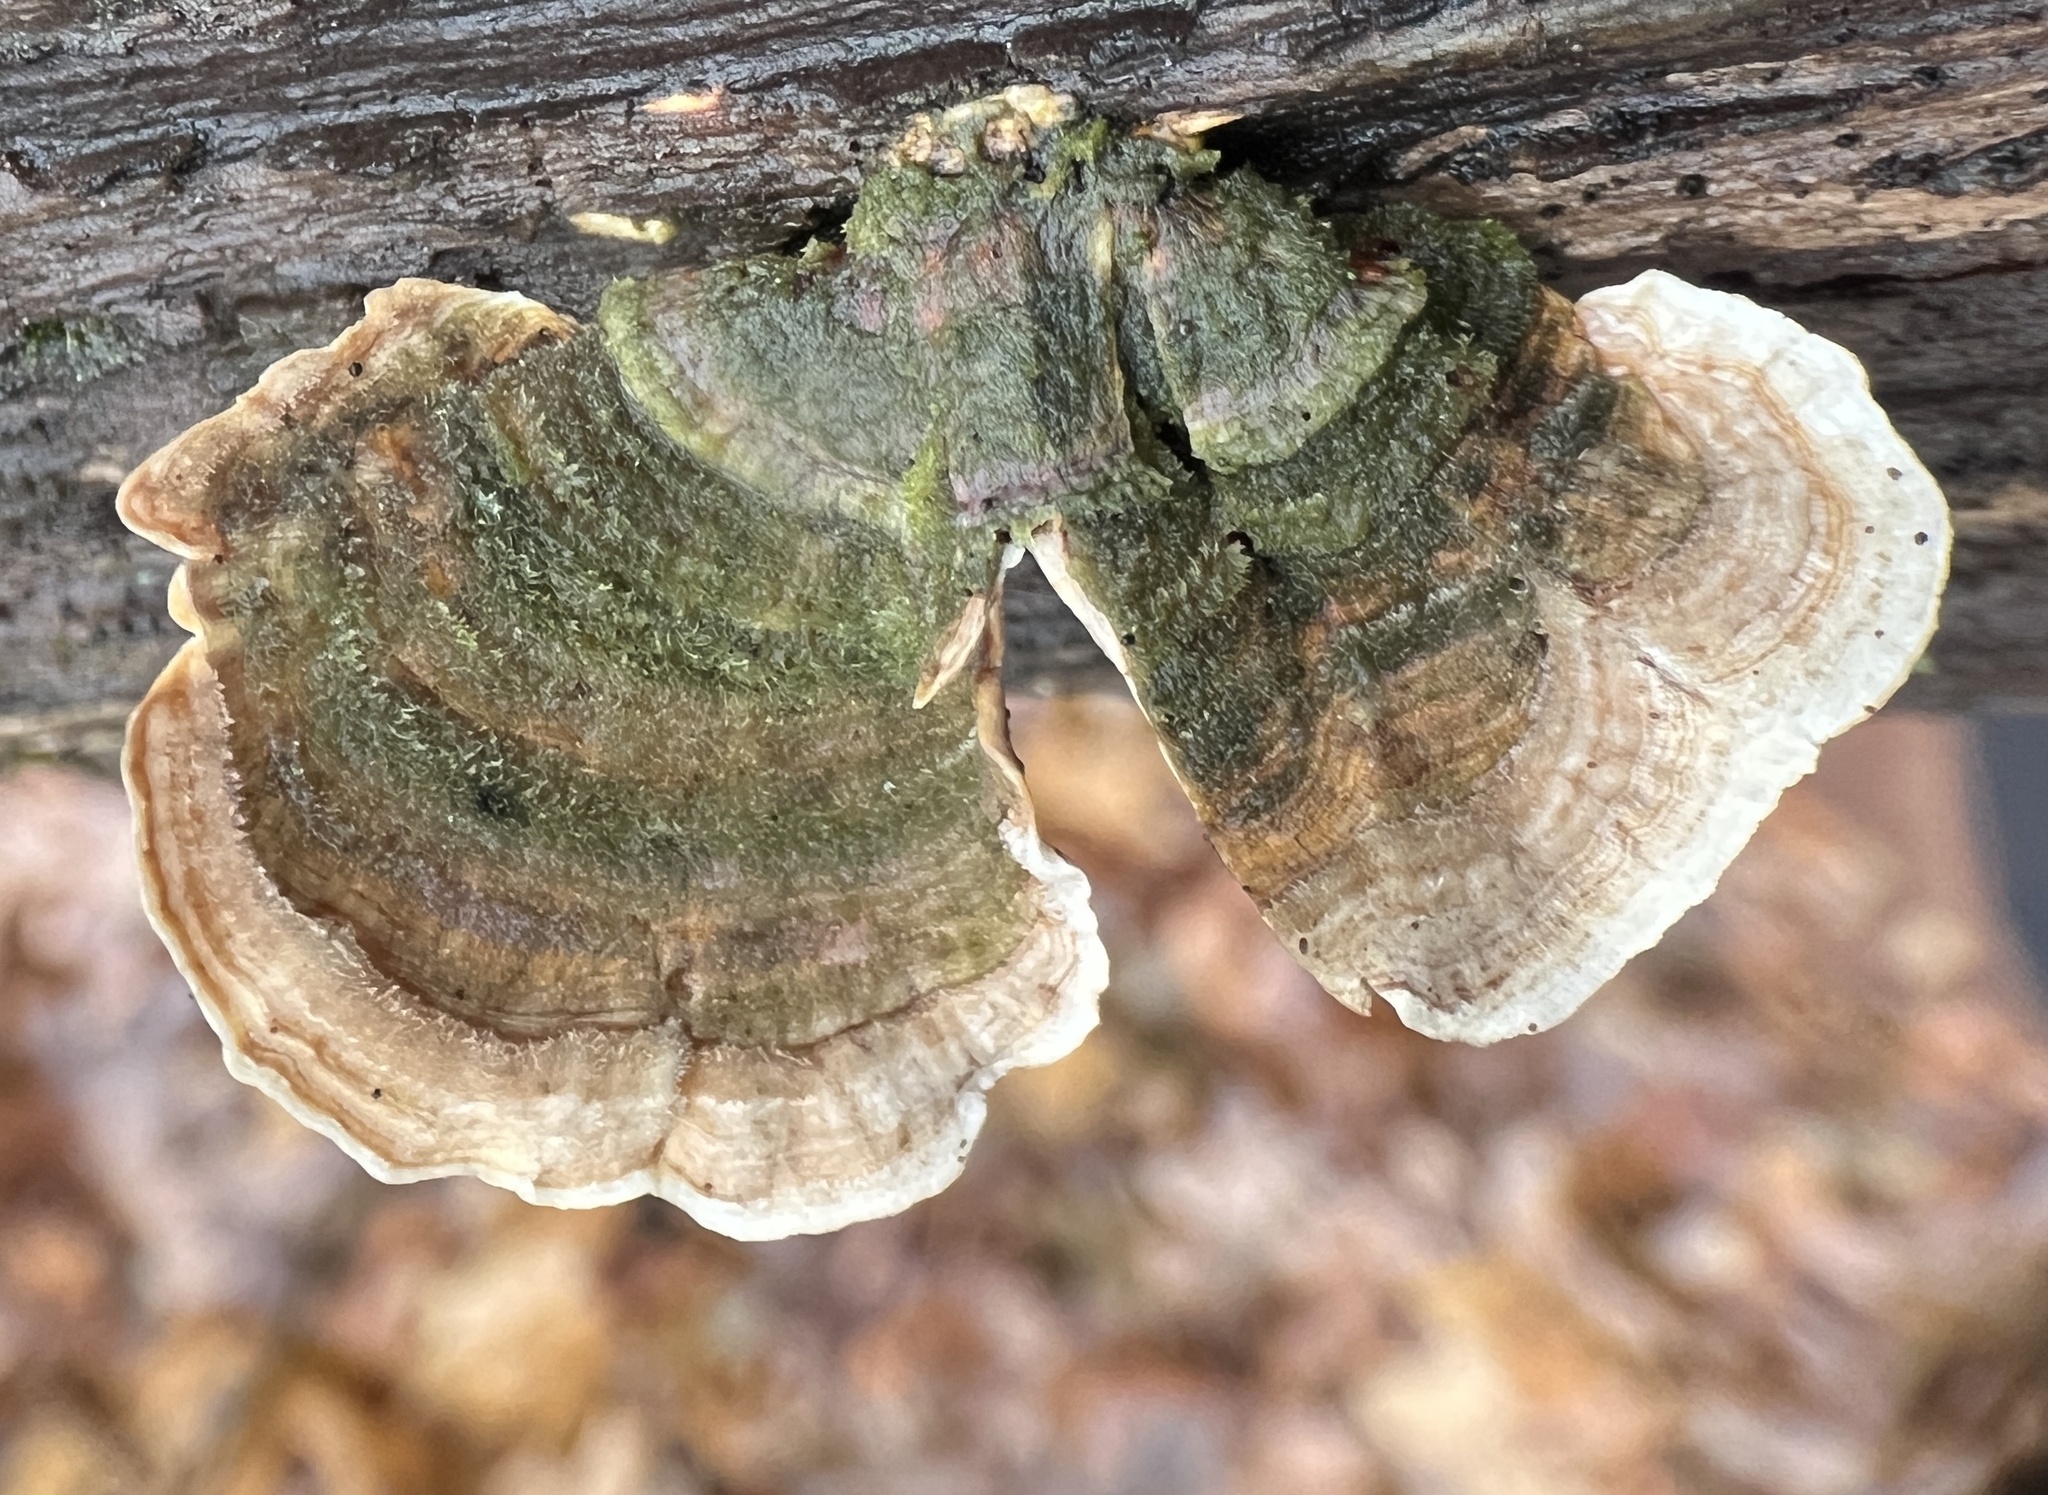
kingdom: Fungi
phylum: Basidiomycota
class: Agaricomycetes
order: Russulales
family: Stereaceae
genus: Stereum
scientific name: Stereum ostrea
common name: False turkeytail
